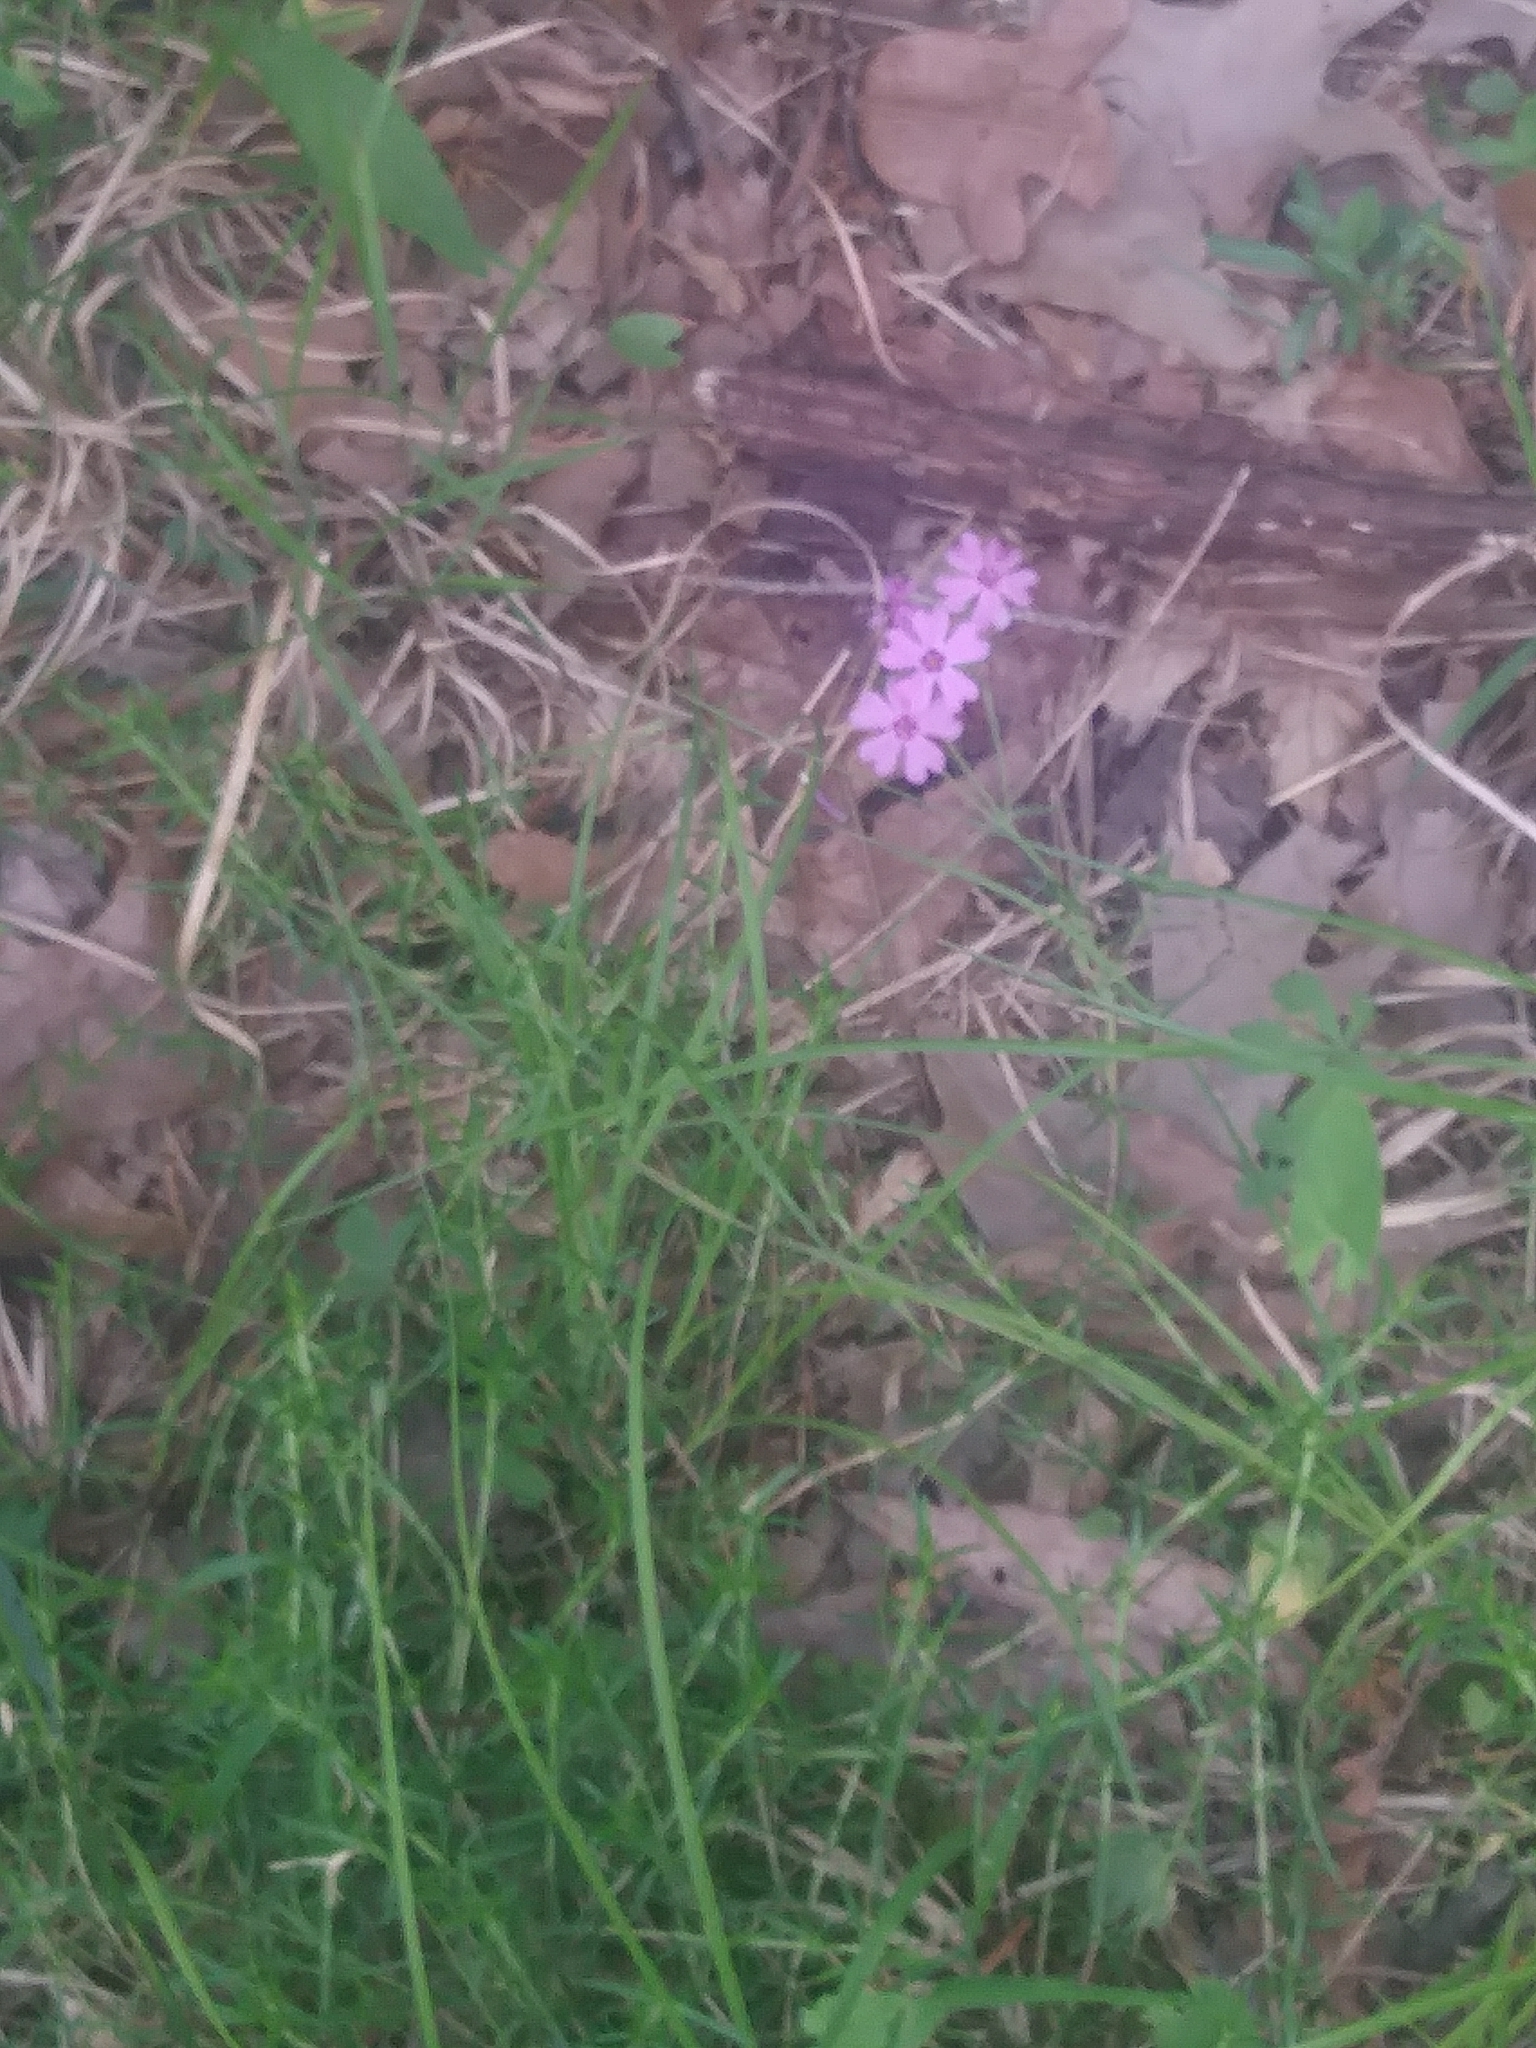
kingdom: Plantae
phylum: Tracheophyta
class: Magnoliopsida
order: Ericales
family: Polemoniaceae
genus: Phlox
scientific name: Phlox subulata
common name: Moss phlox
